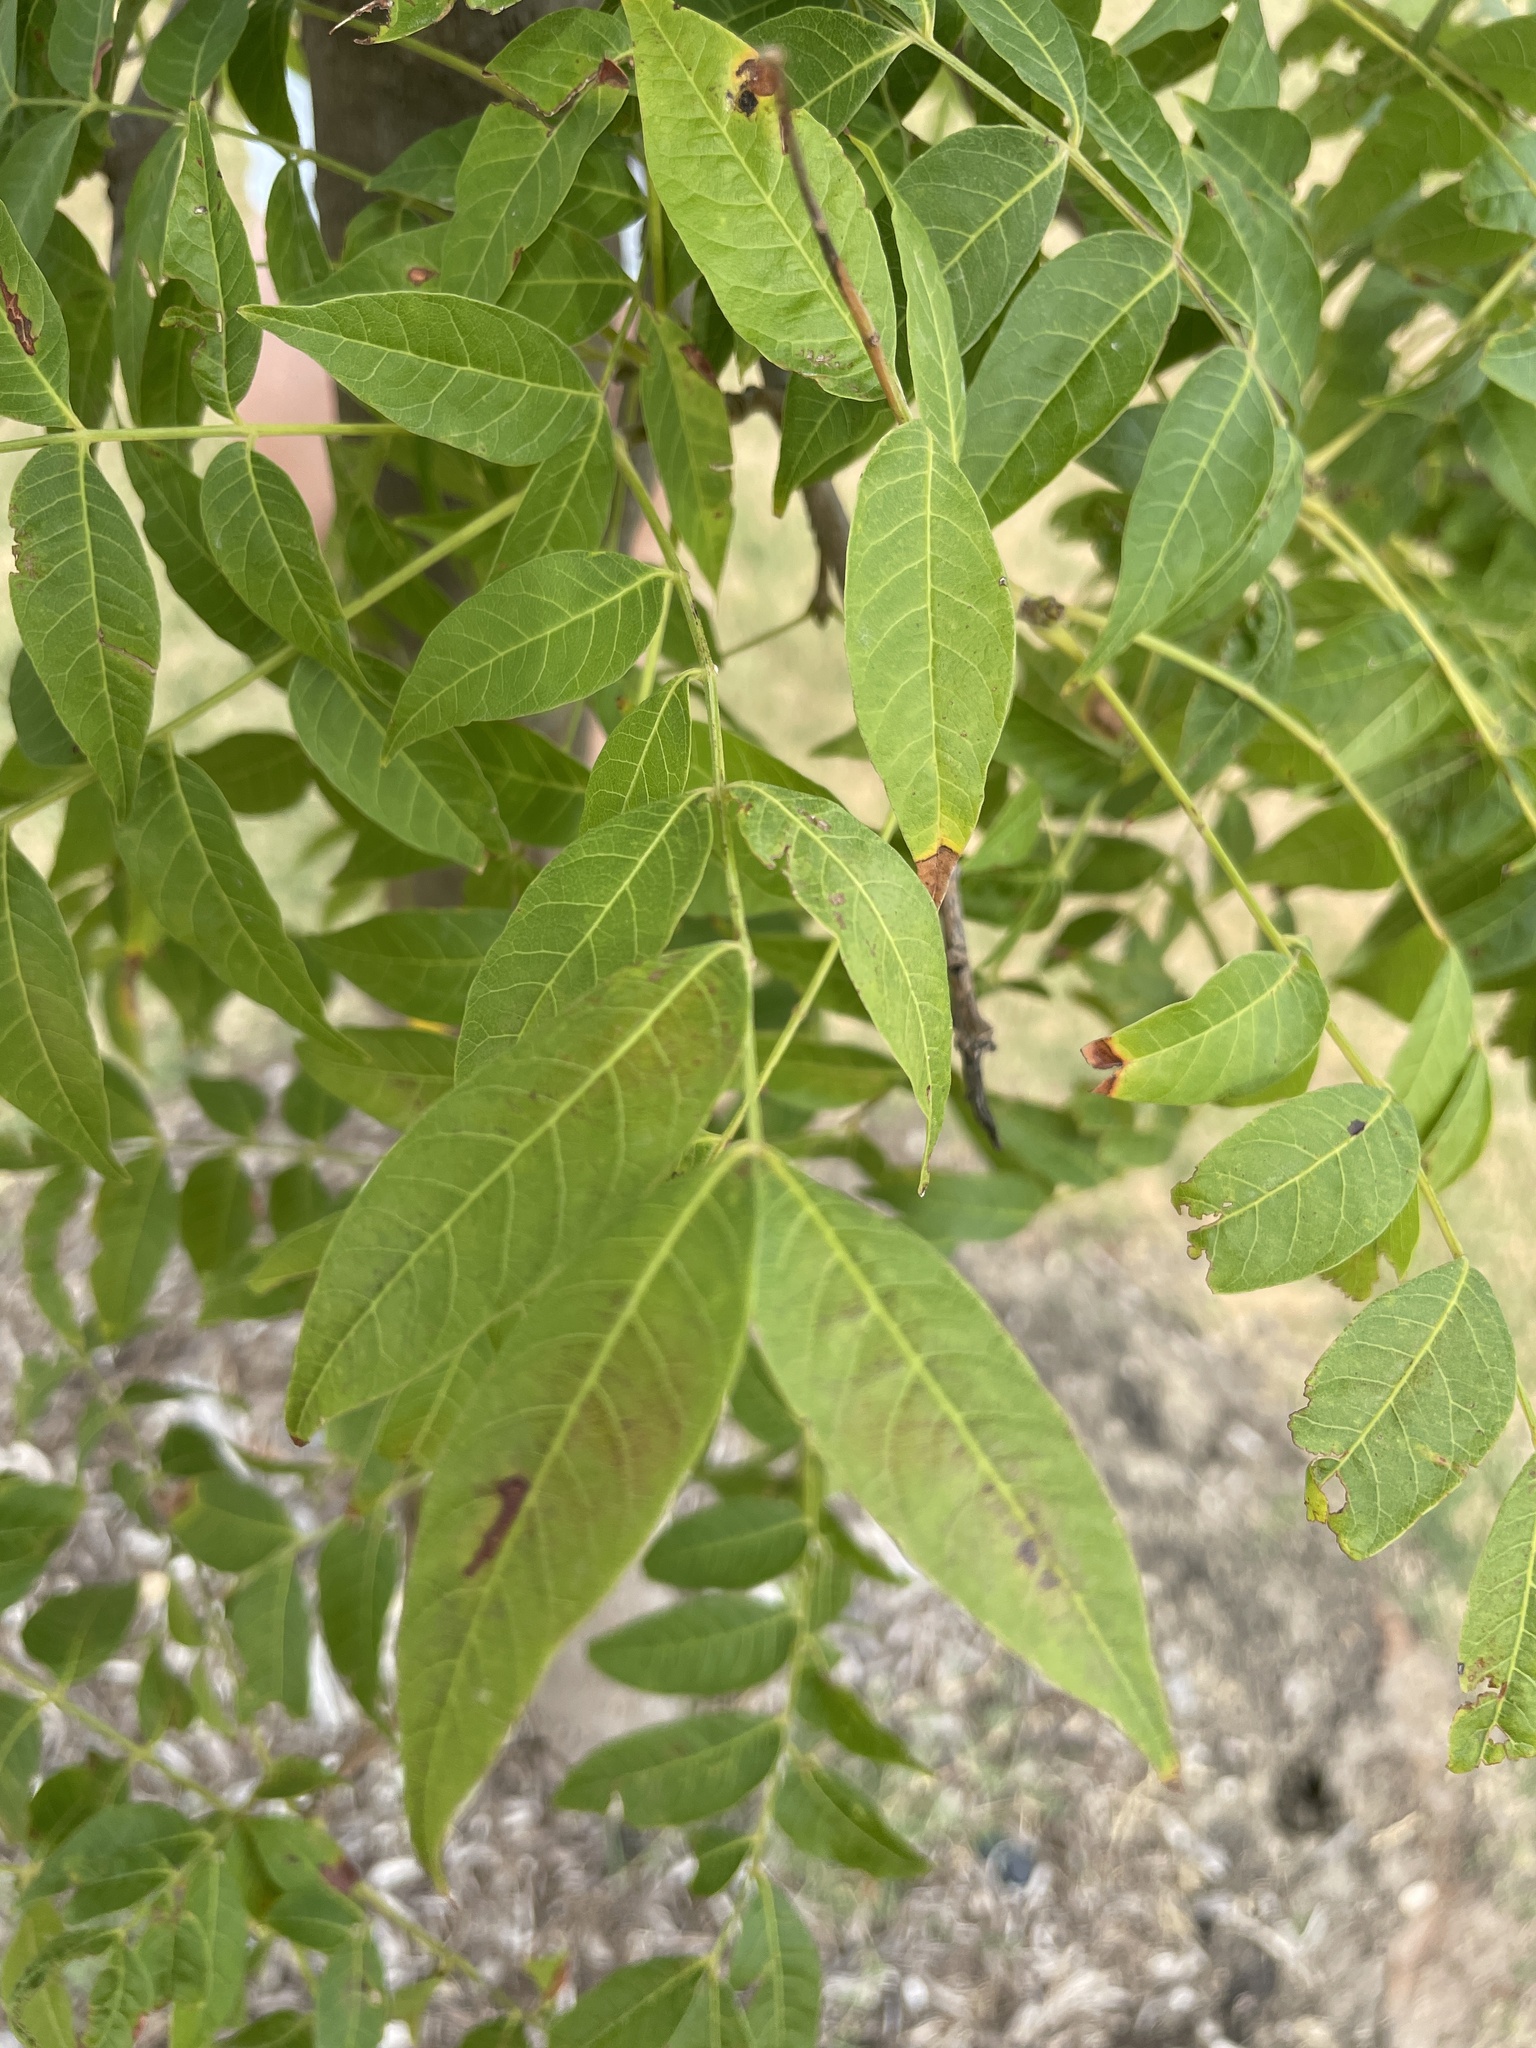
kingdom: Plantae
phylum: Tracheophyta
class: Magnoliopsida
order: Sapindales
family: Anacardiaceae
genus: Pistacia
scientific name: Pistacia chinensis
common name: Chinese pistache
